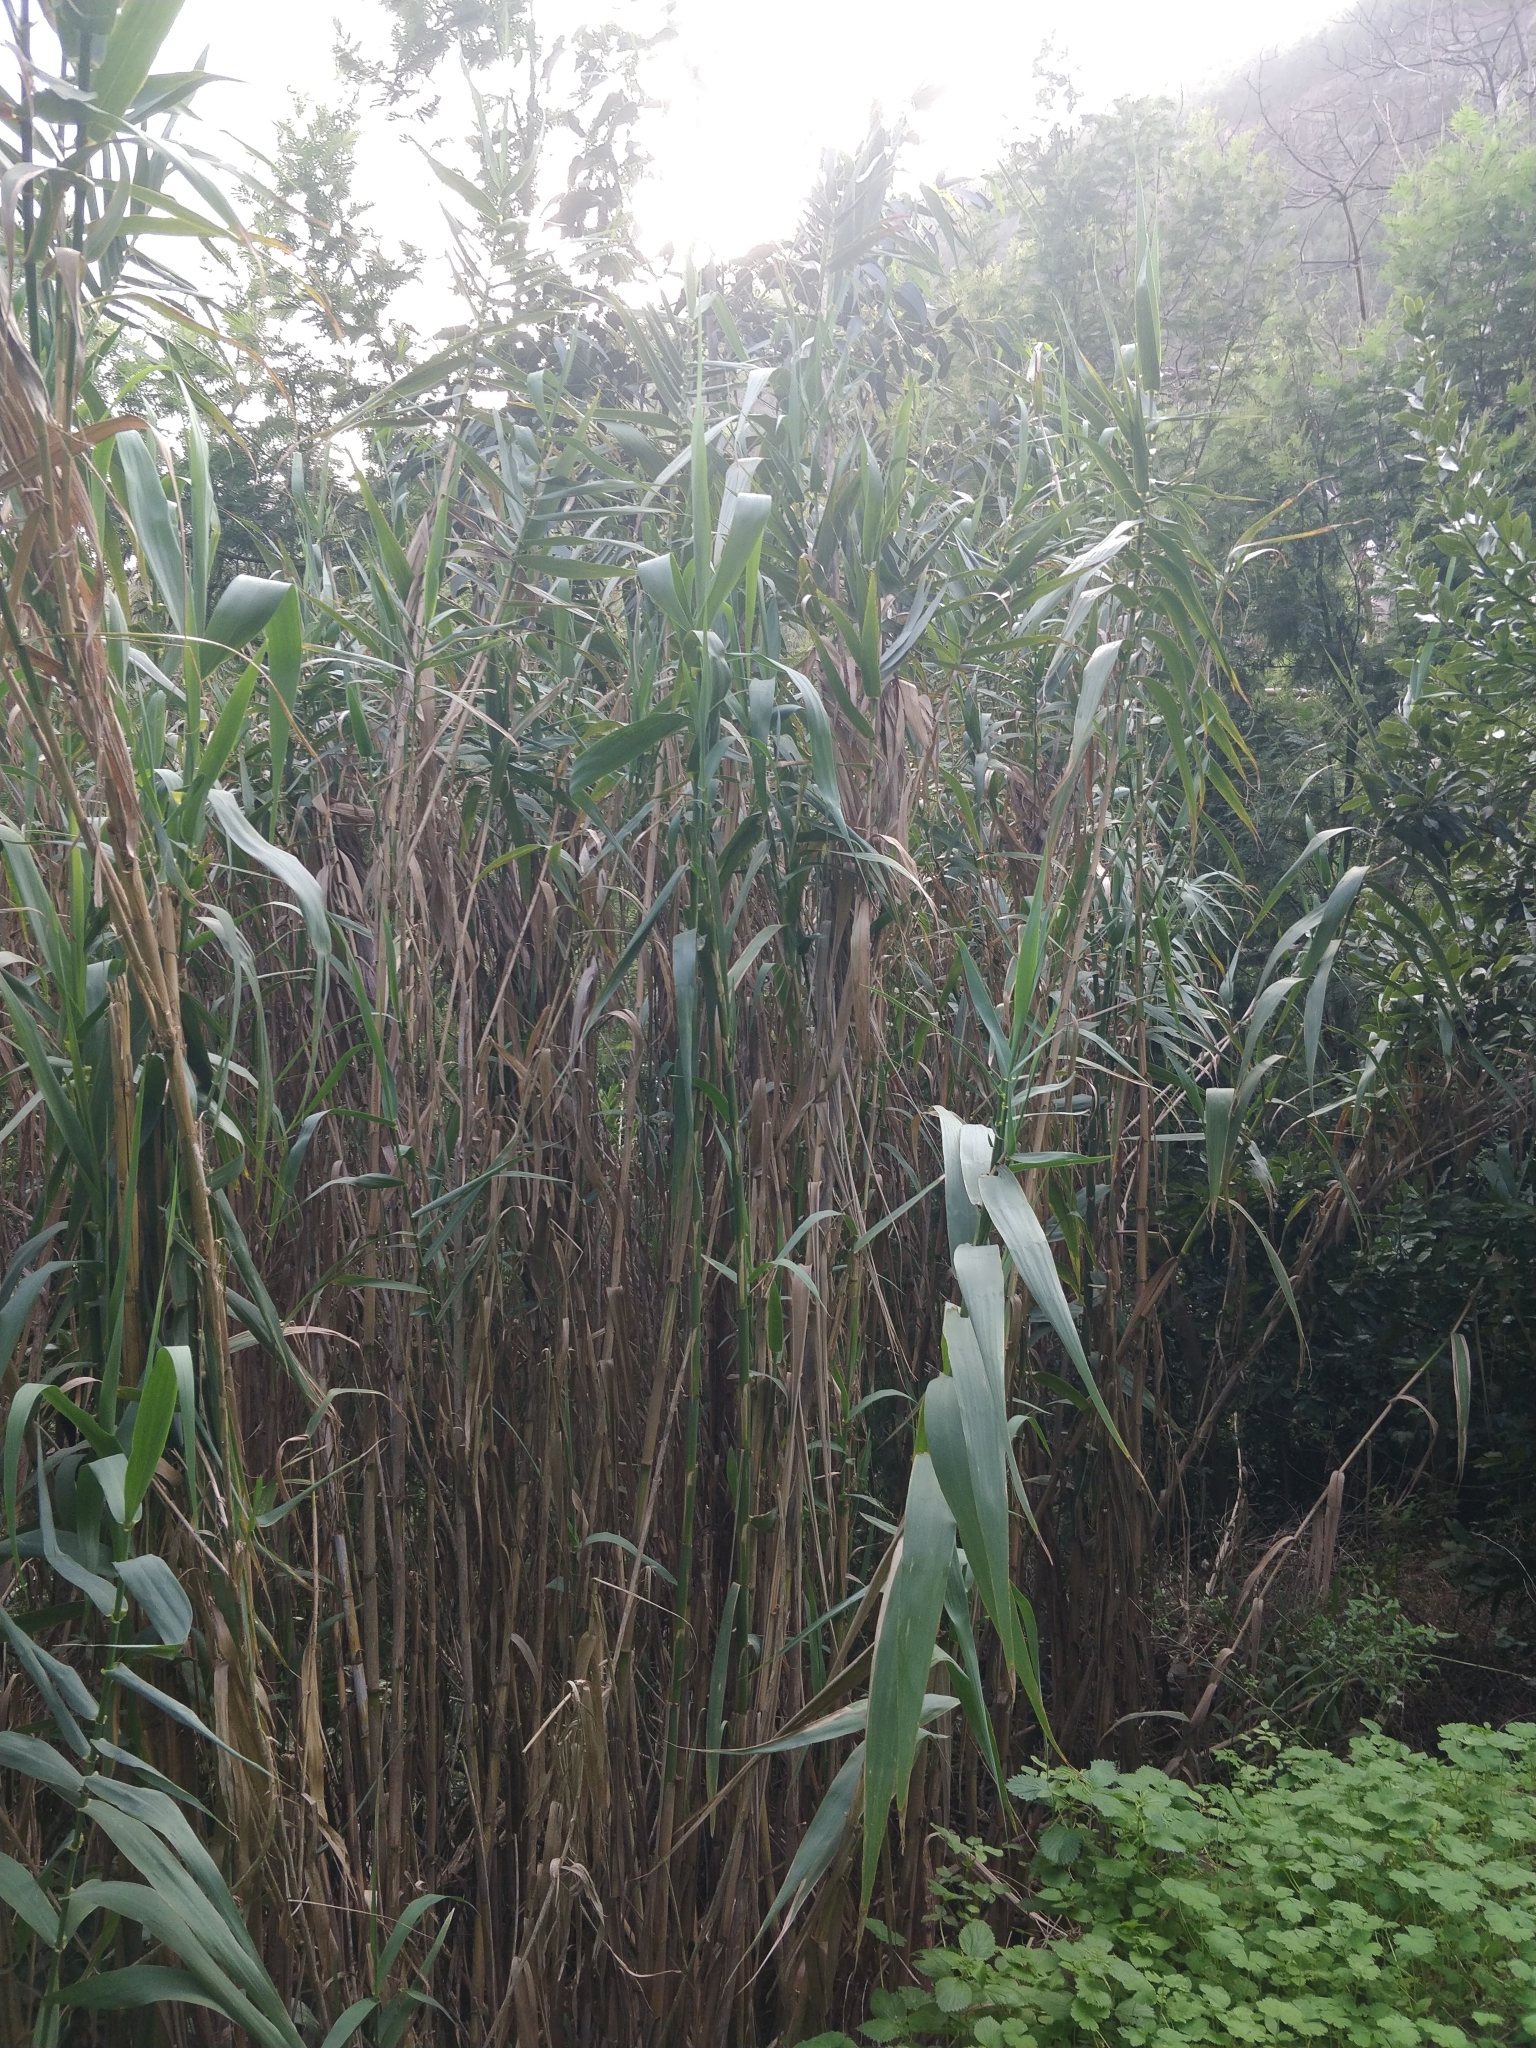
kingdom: Plantae
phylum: Tracheophyta
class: Liliopsida
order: Poales
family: Poaceae
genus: Arundo
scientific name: Arundo donax
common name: Giant reed
